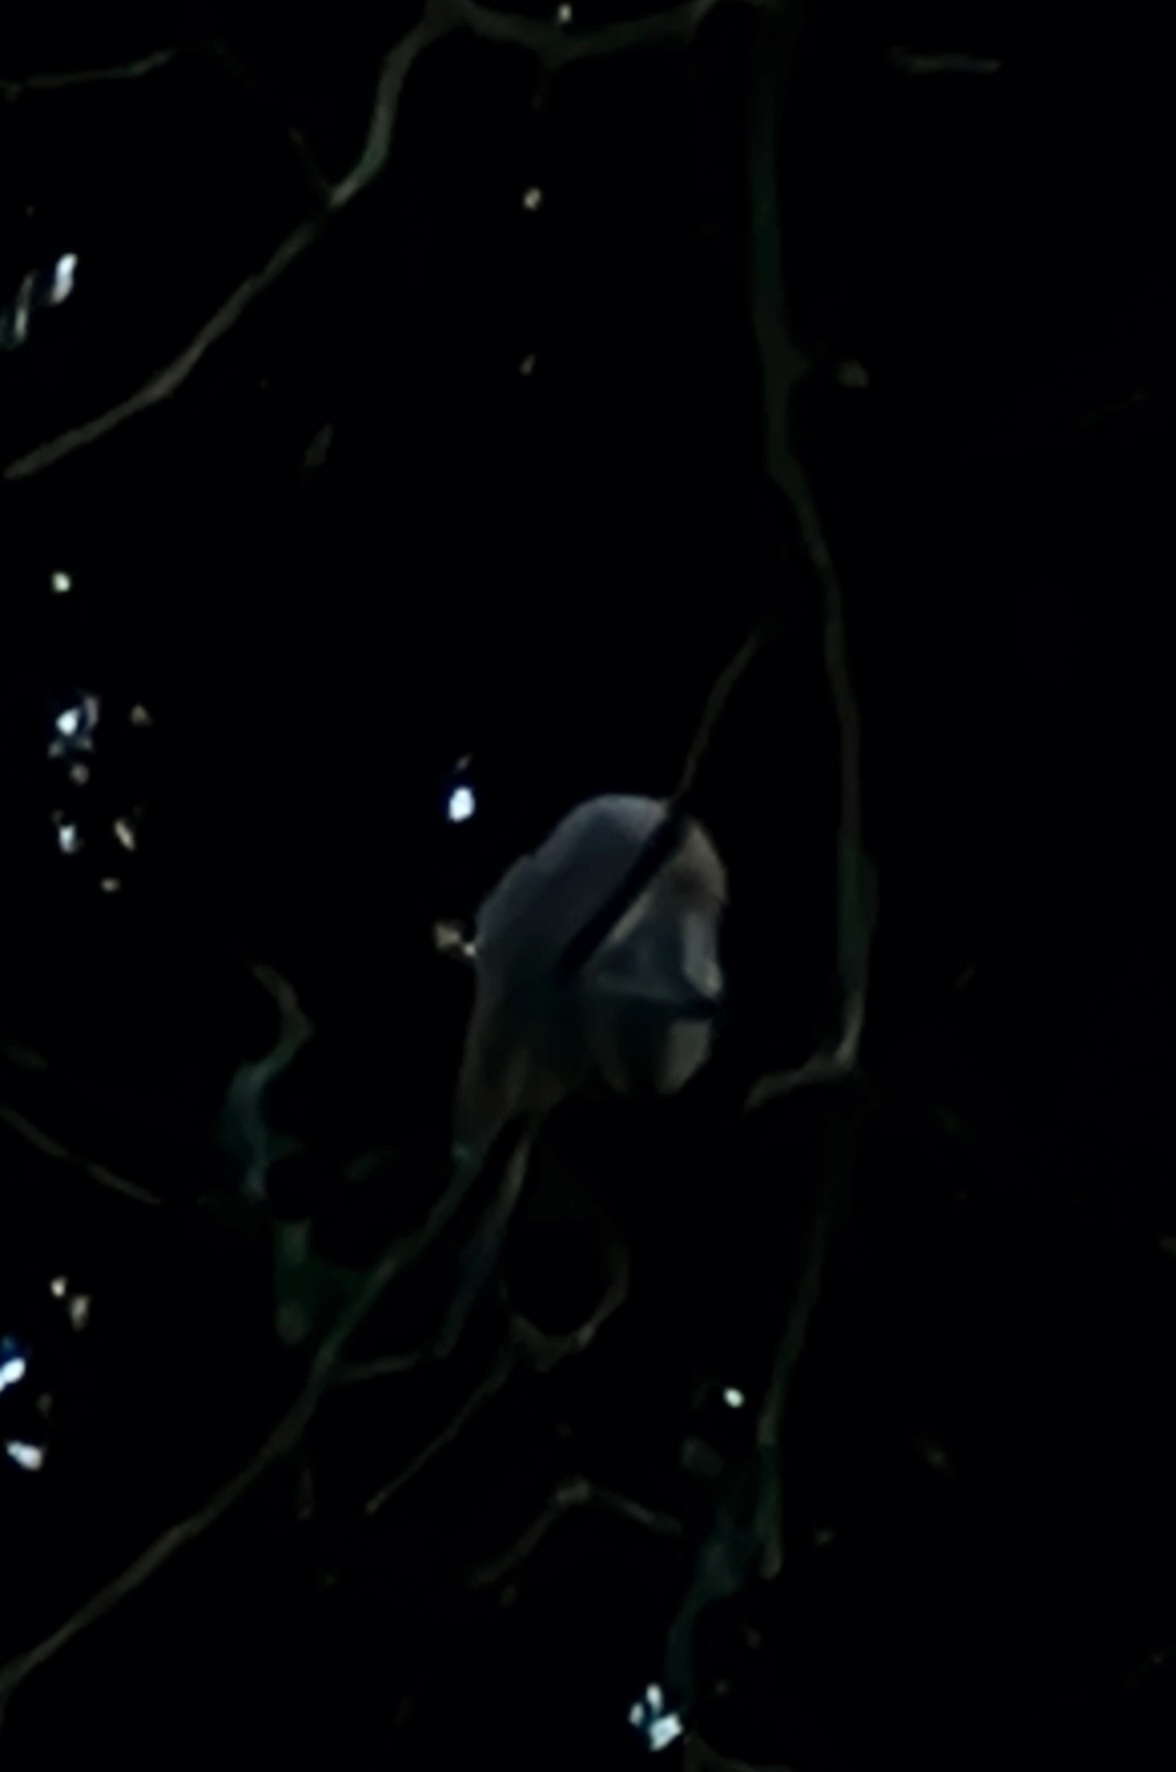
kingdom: Animalia
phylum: Chordata
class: Aves
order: Strigiformes
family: Strigidae
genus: Strix
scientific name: Strix aluco
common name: Tawny owl
